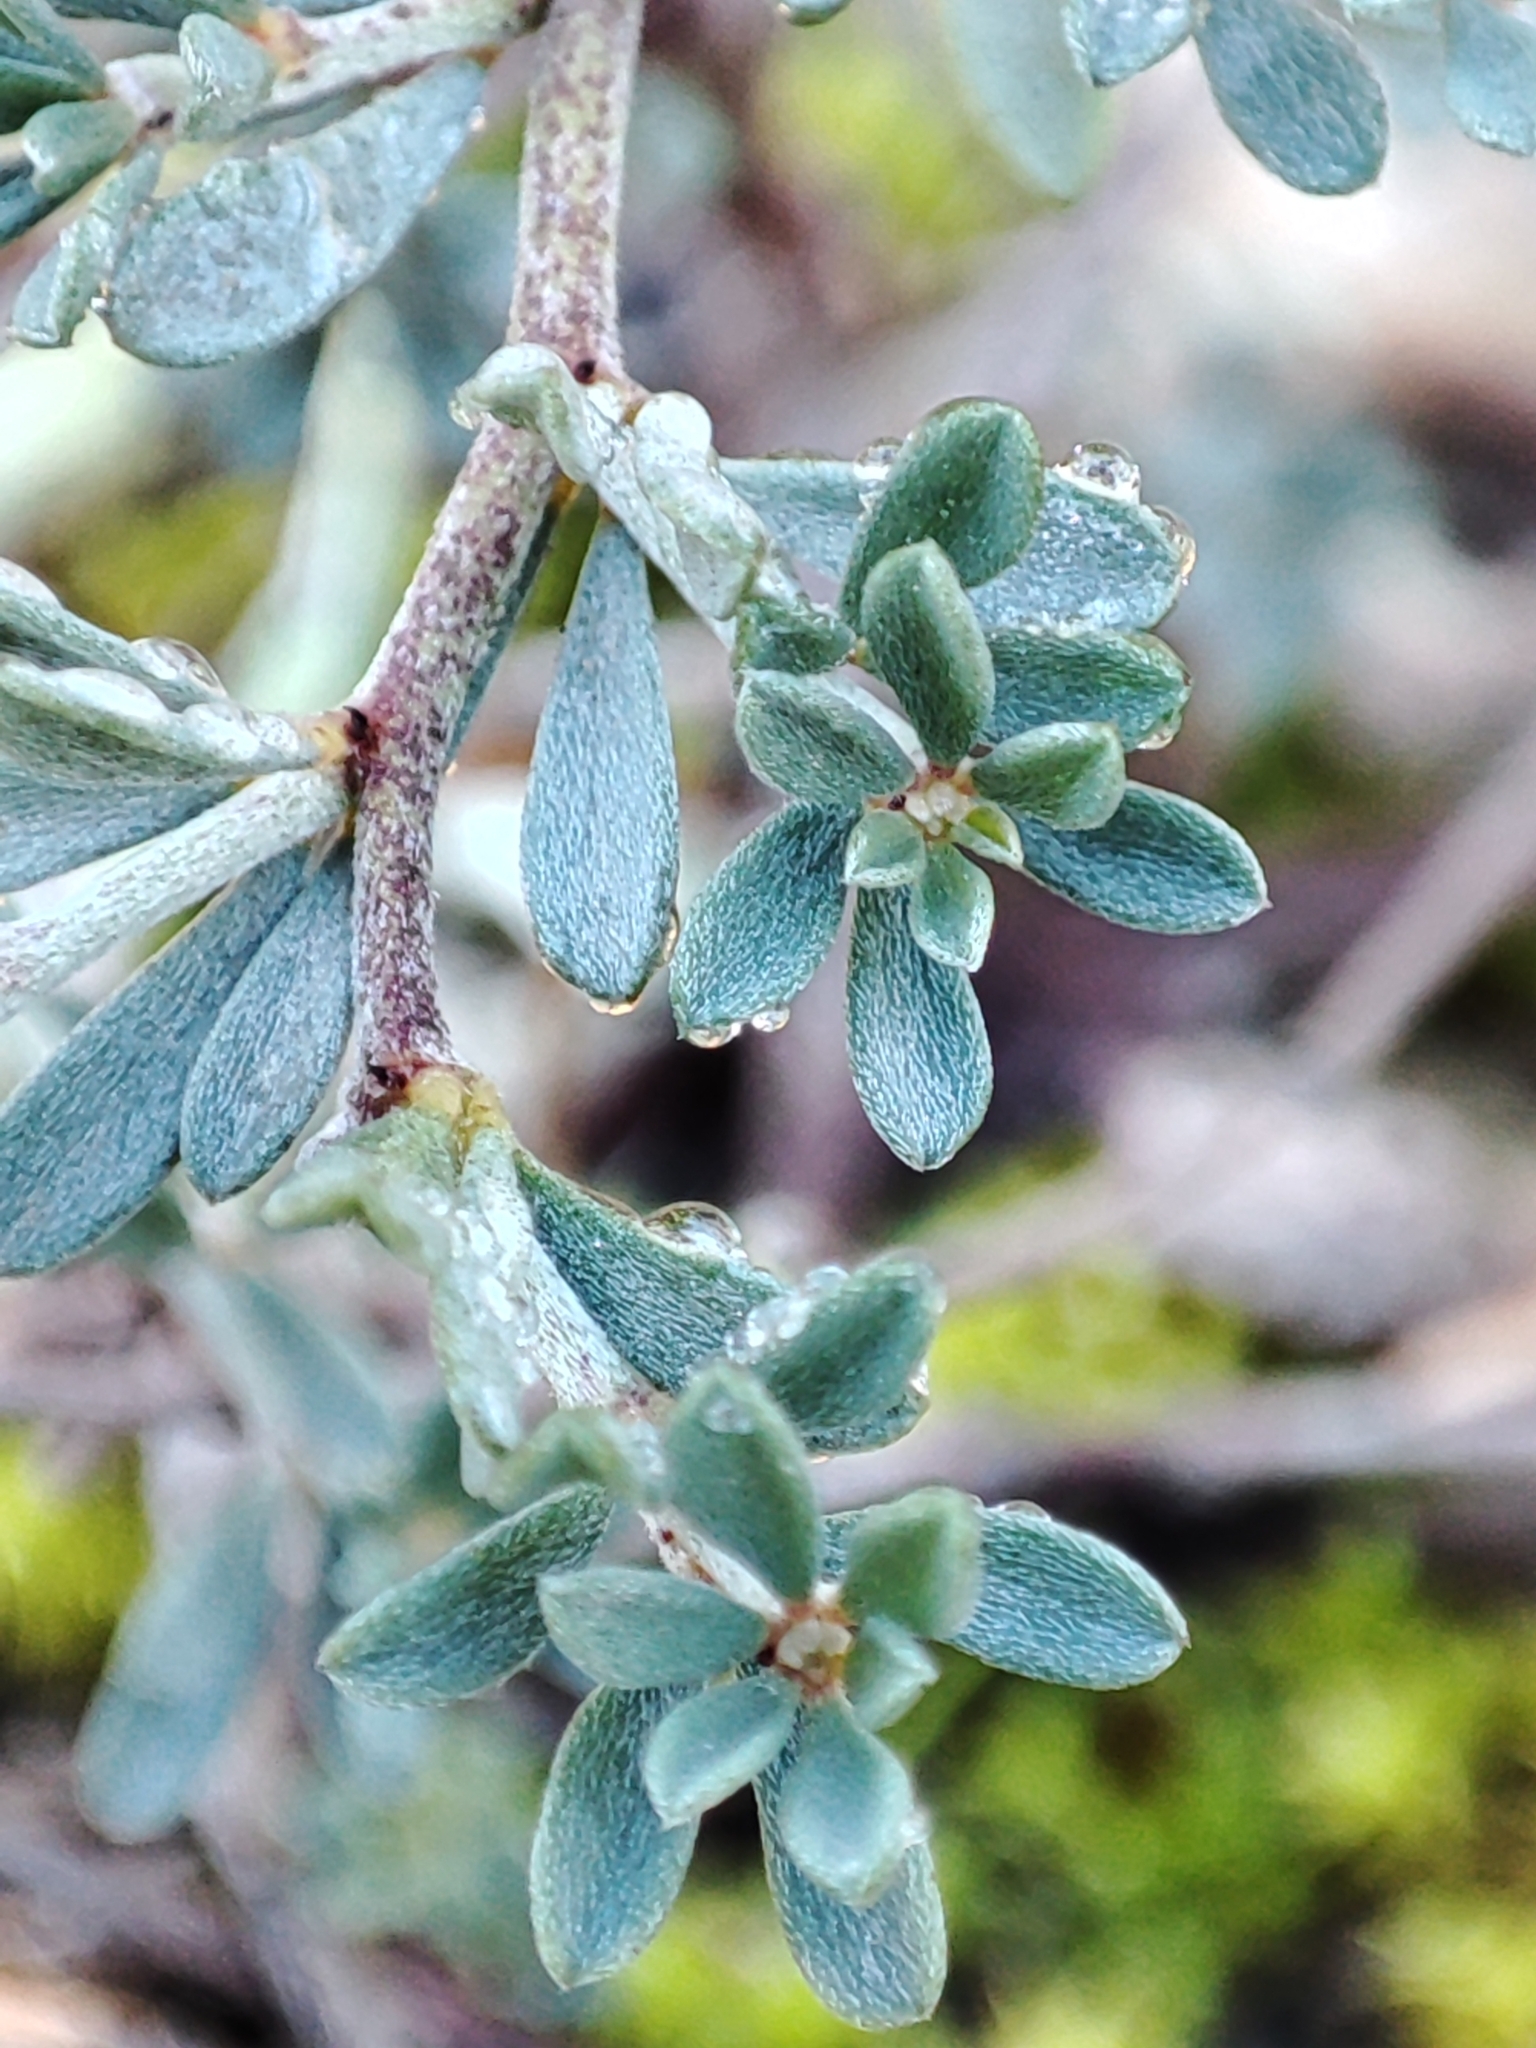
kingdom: Plantae
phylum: Tracheophyta
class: Magnoliopsida
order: Fabales
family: Fabaceae
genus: Lotus
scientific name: Lotus dorycnium
